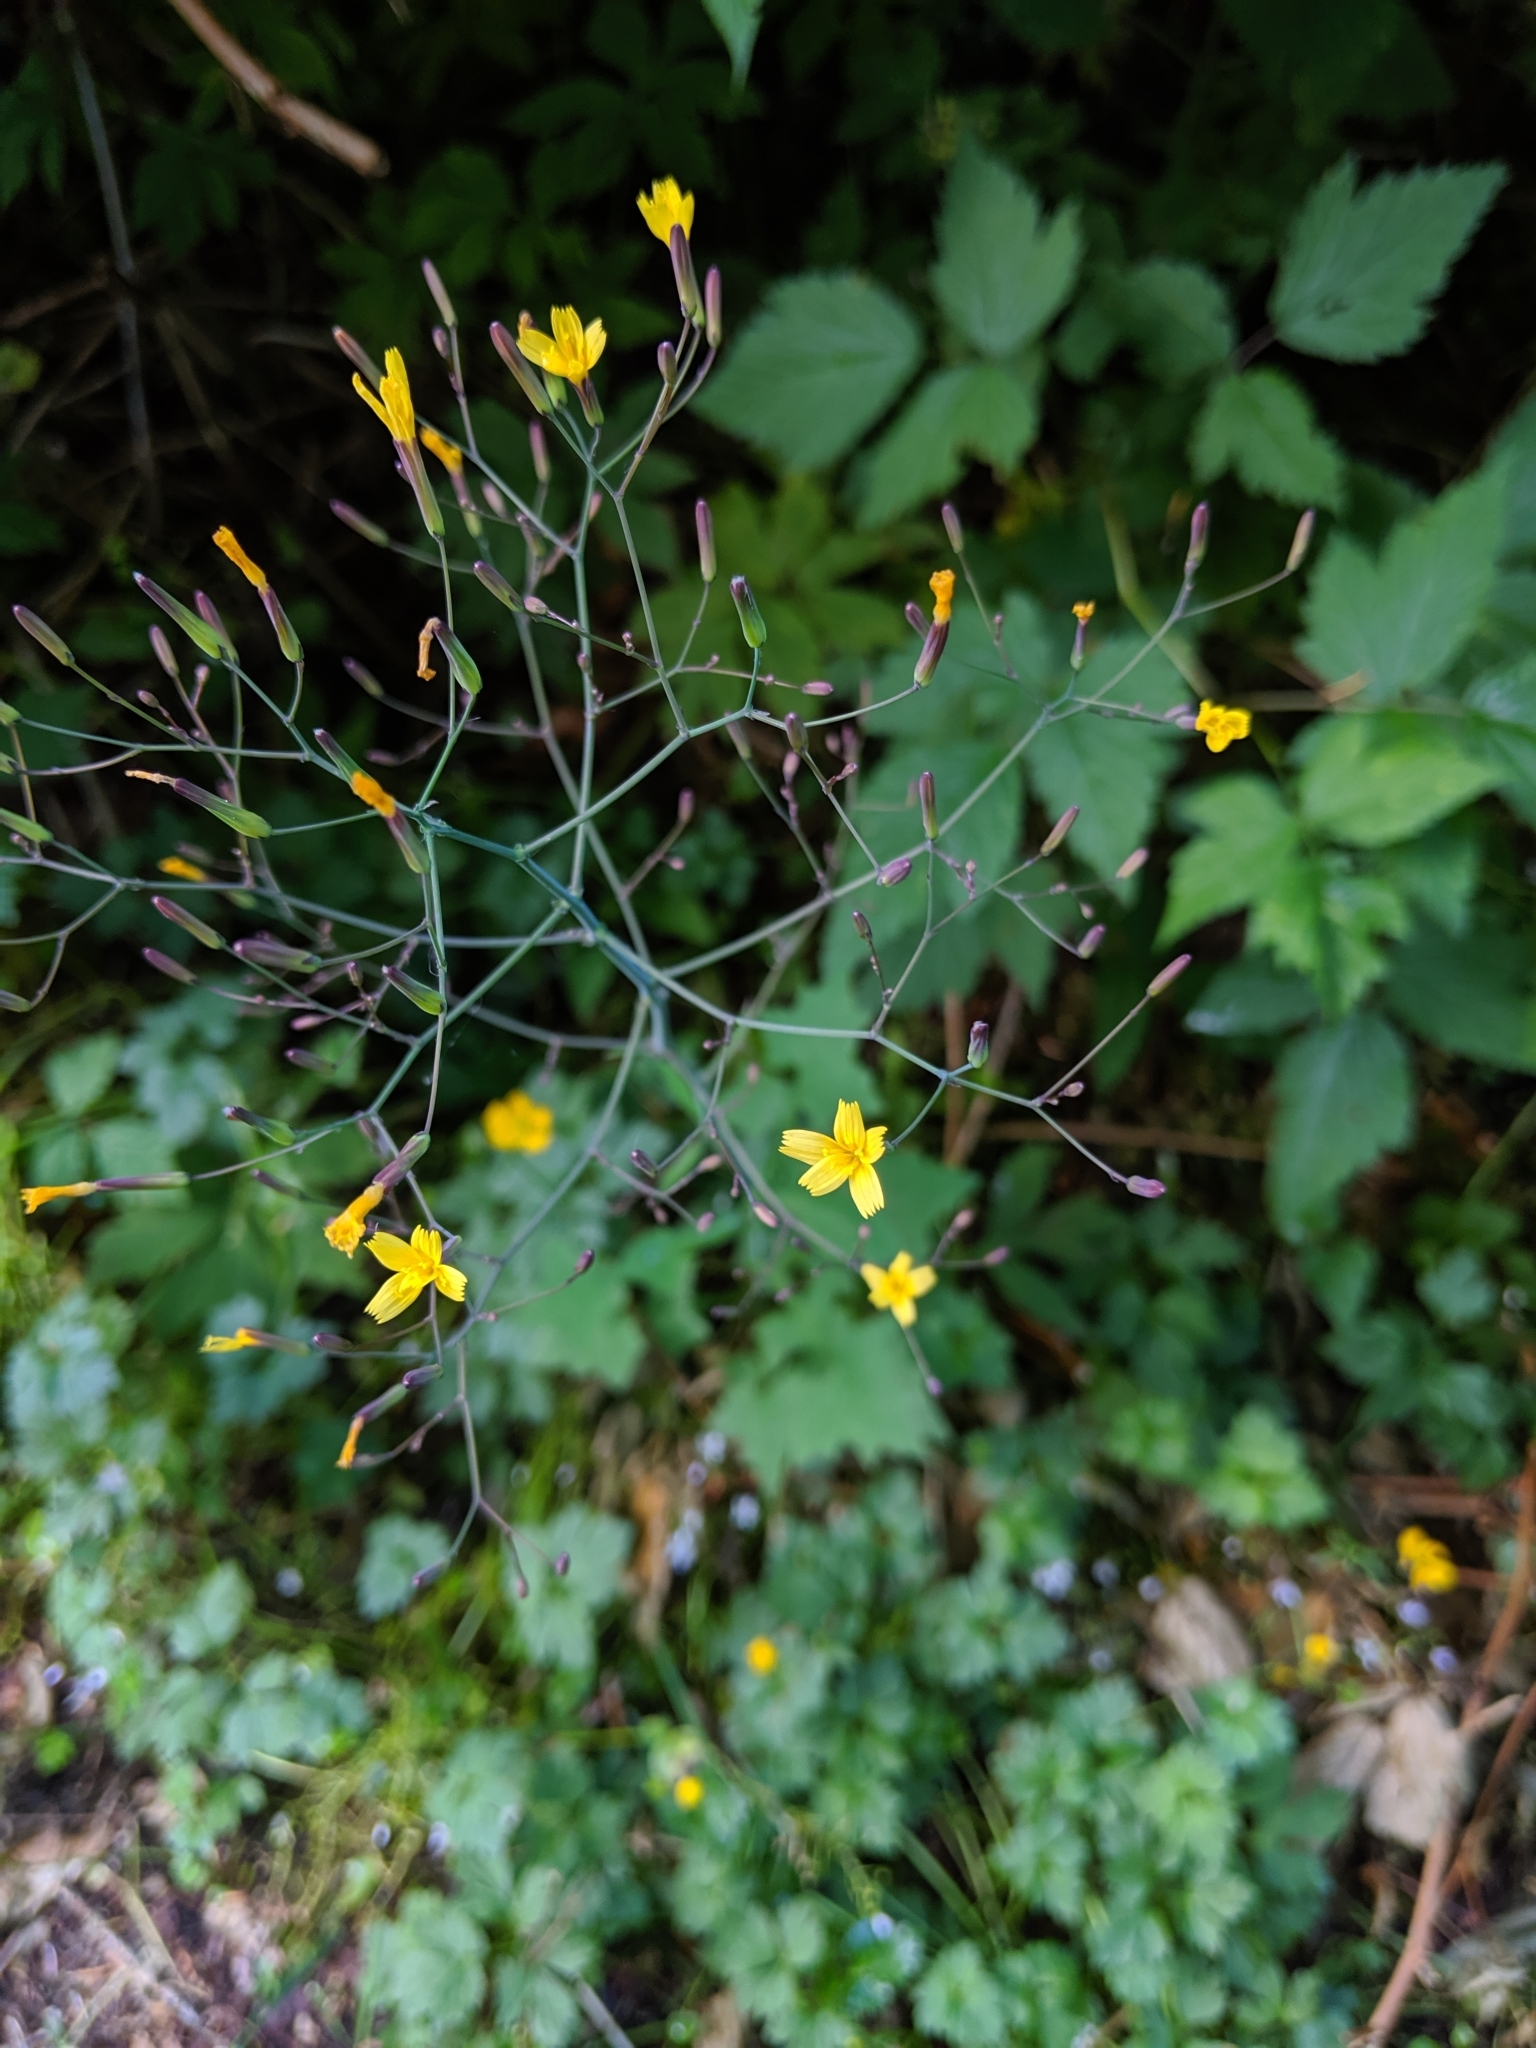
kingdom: Plantae
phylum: Tracheophyta
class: Magnoliopsida
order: Asterales
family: Asteraceae
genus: Mycelis
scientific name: Mycelis muralis
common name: Wall lettuce
